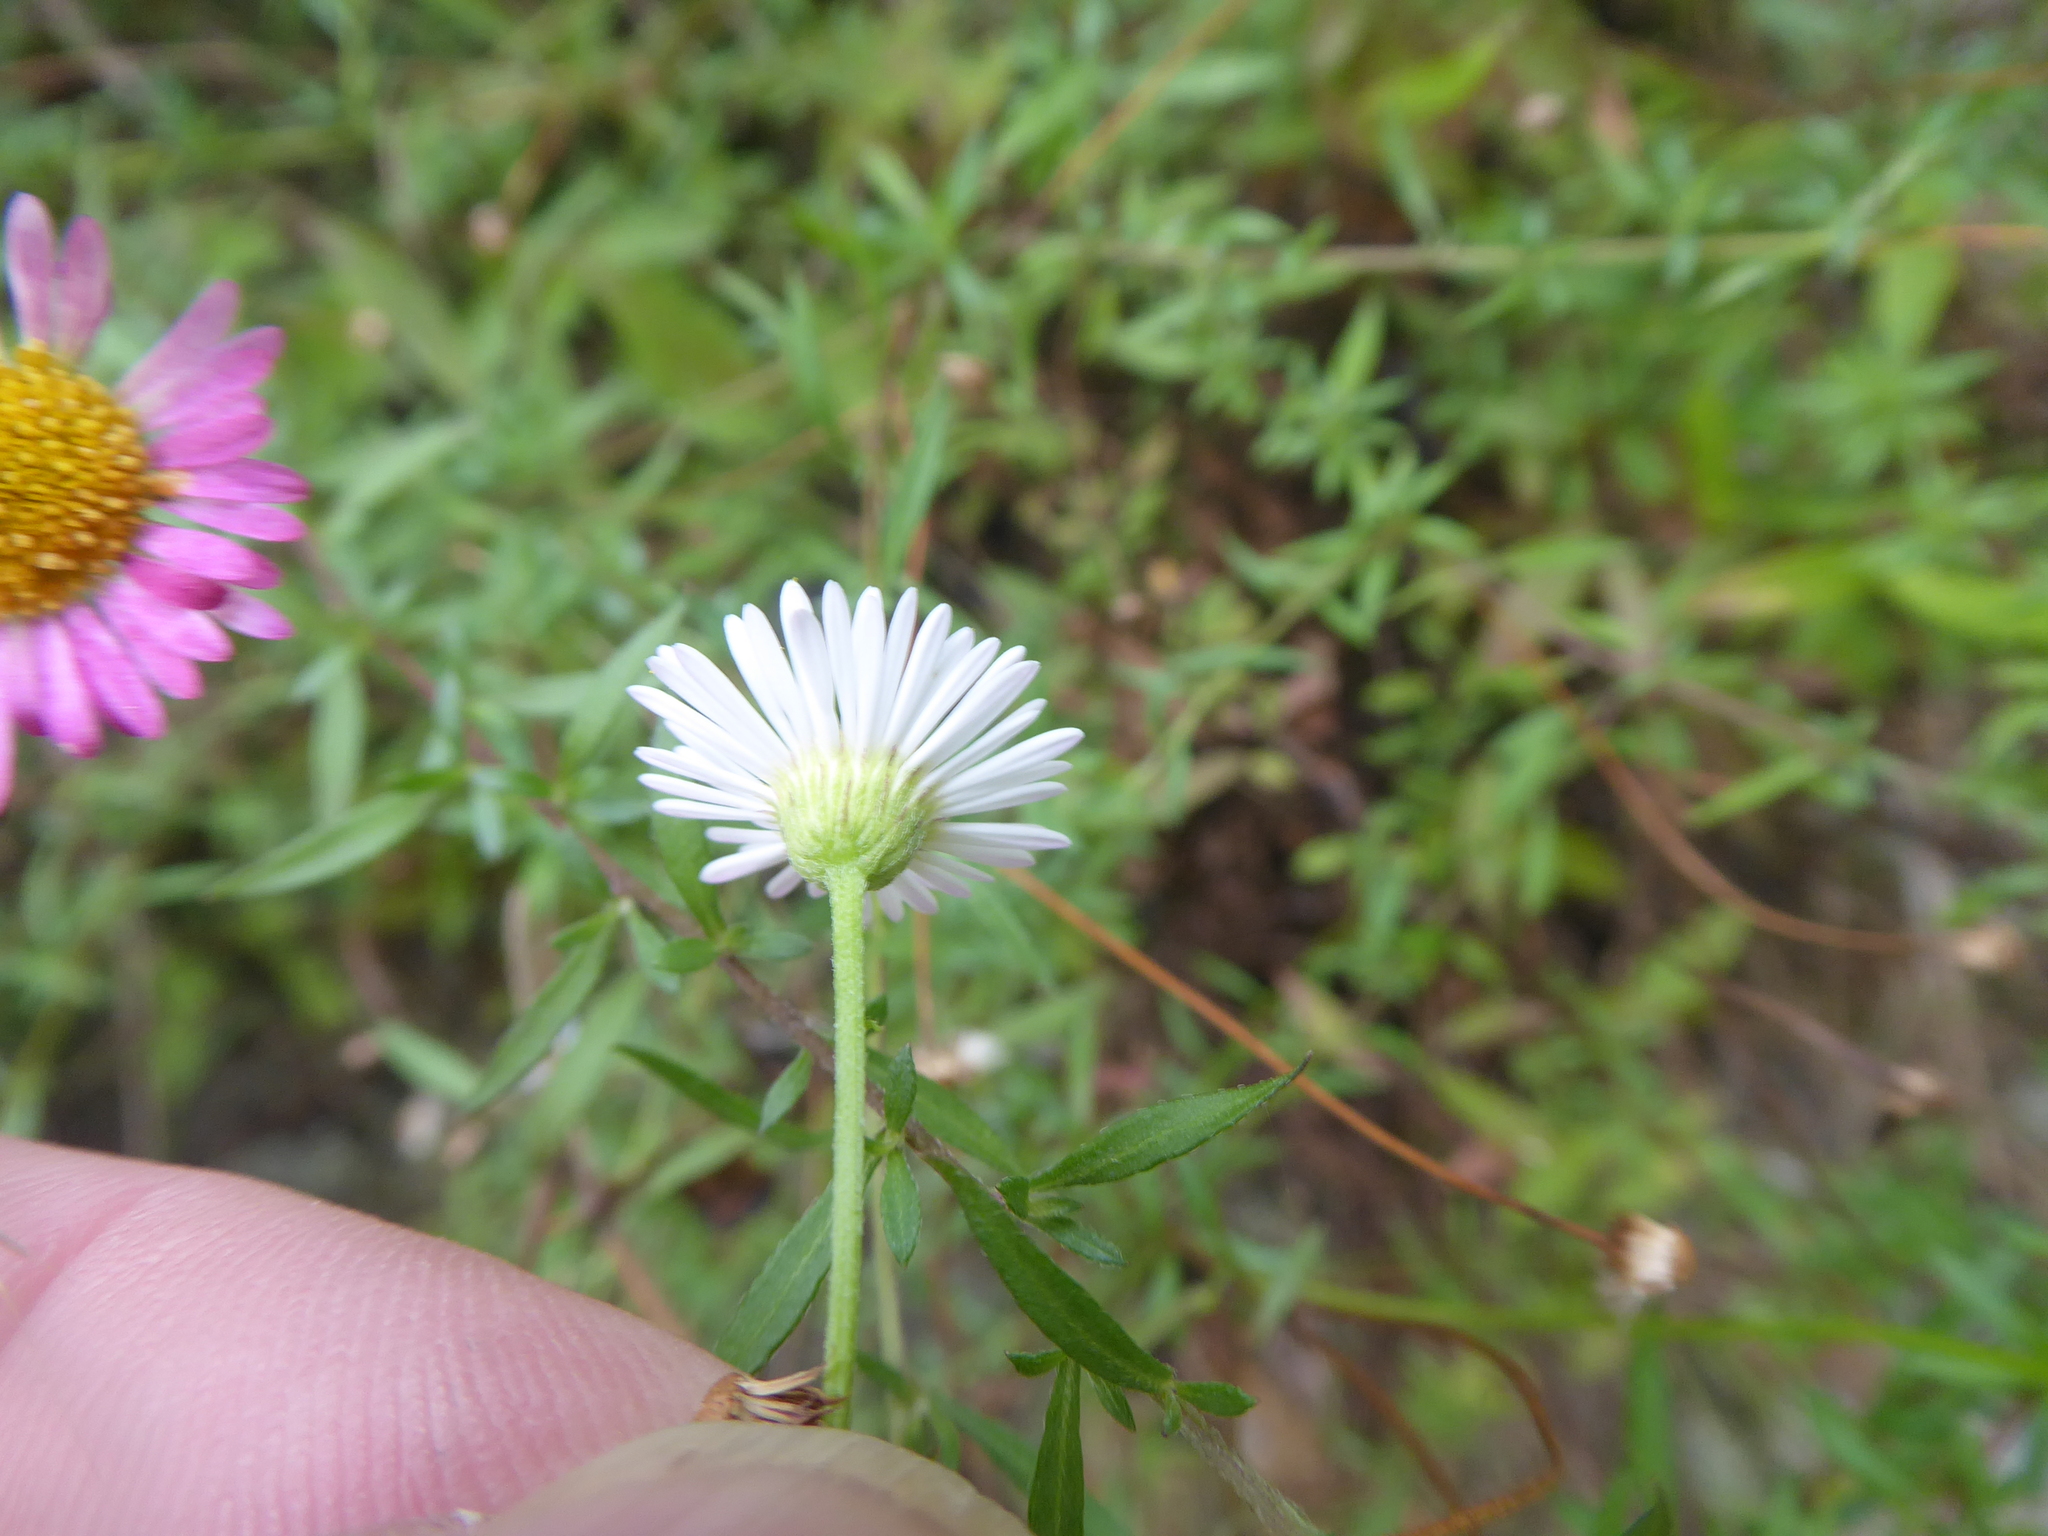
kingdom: Plantae
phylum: Tracheophyta
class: Magnoliopsida
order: Asterales
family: Asteraceae
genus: Erigeron
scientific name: Erigeron karvinskianus
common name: Mexican fleabane
